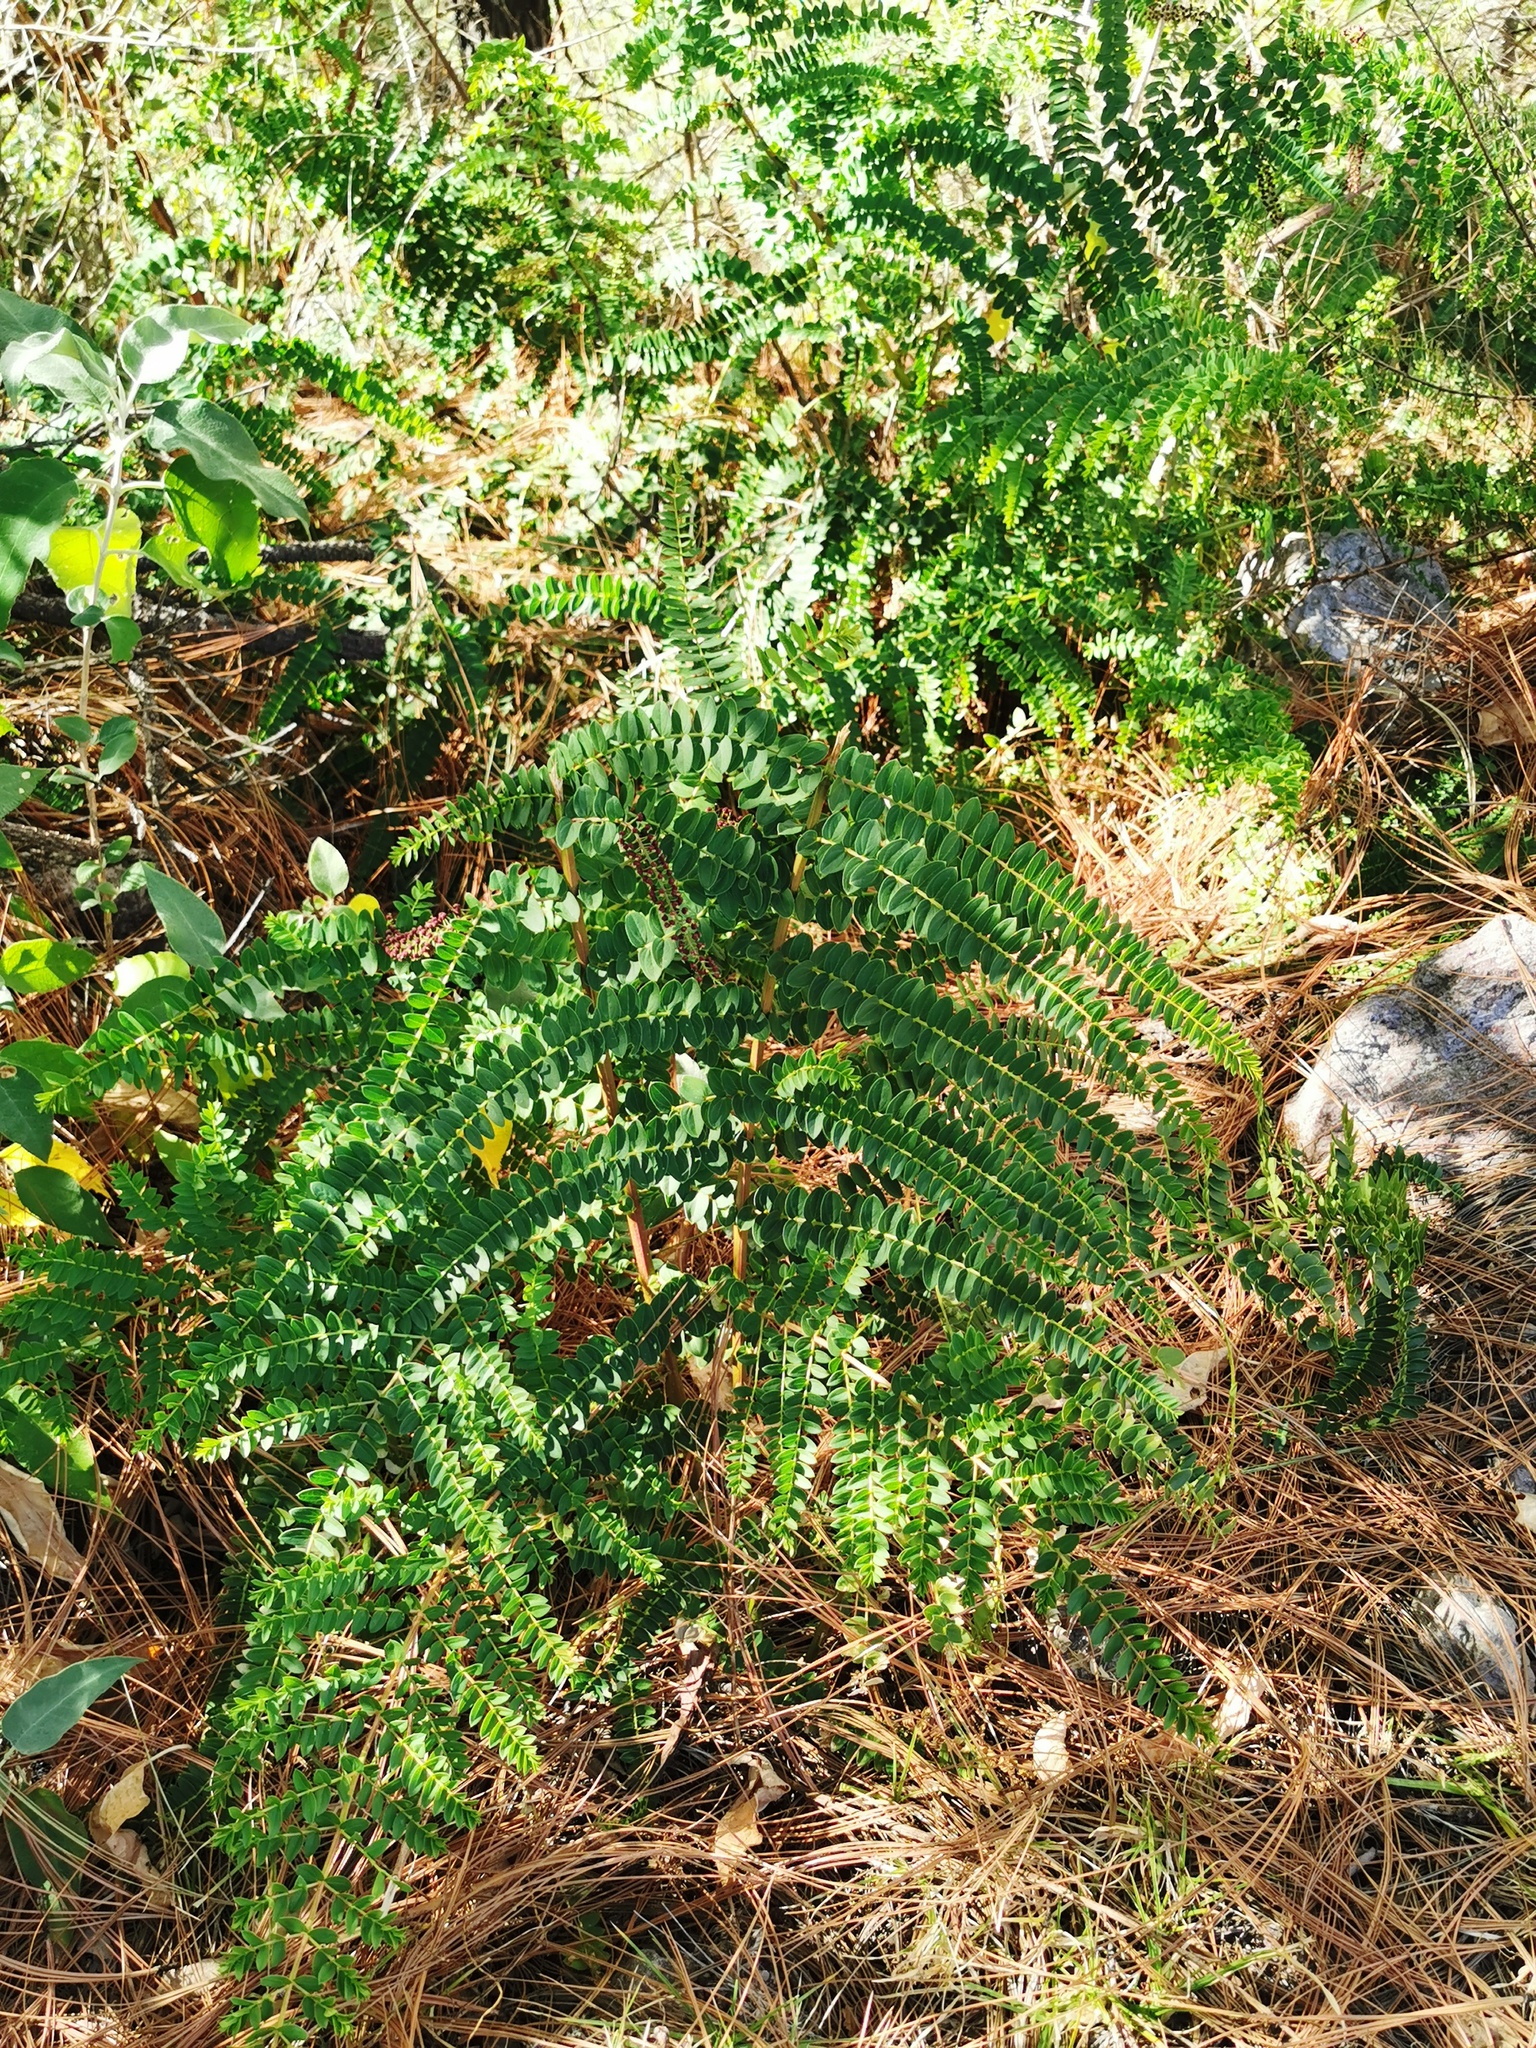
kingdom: Plantae
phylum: Tracheophyta
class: Magnoliopsida
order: Cucurbitales
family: Coriariaceae
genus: Coriaria
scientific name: Coriaria ruscifolia
